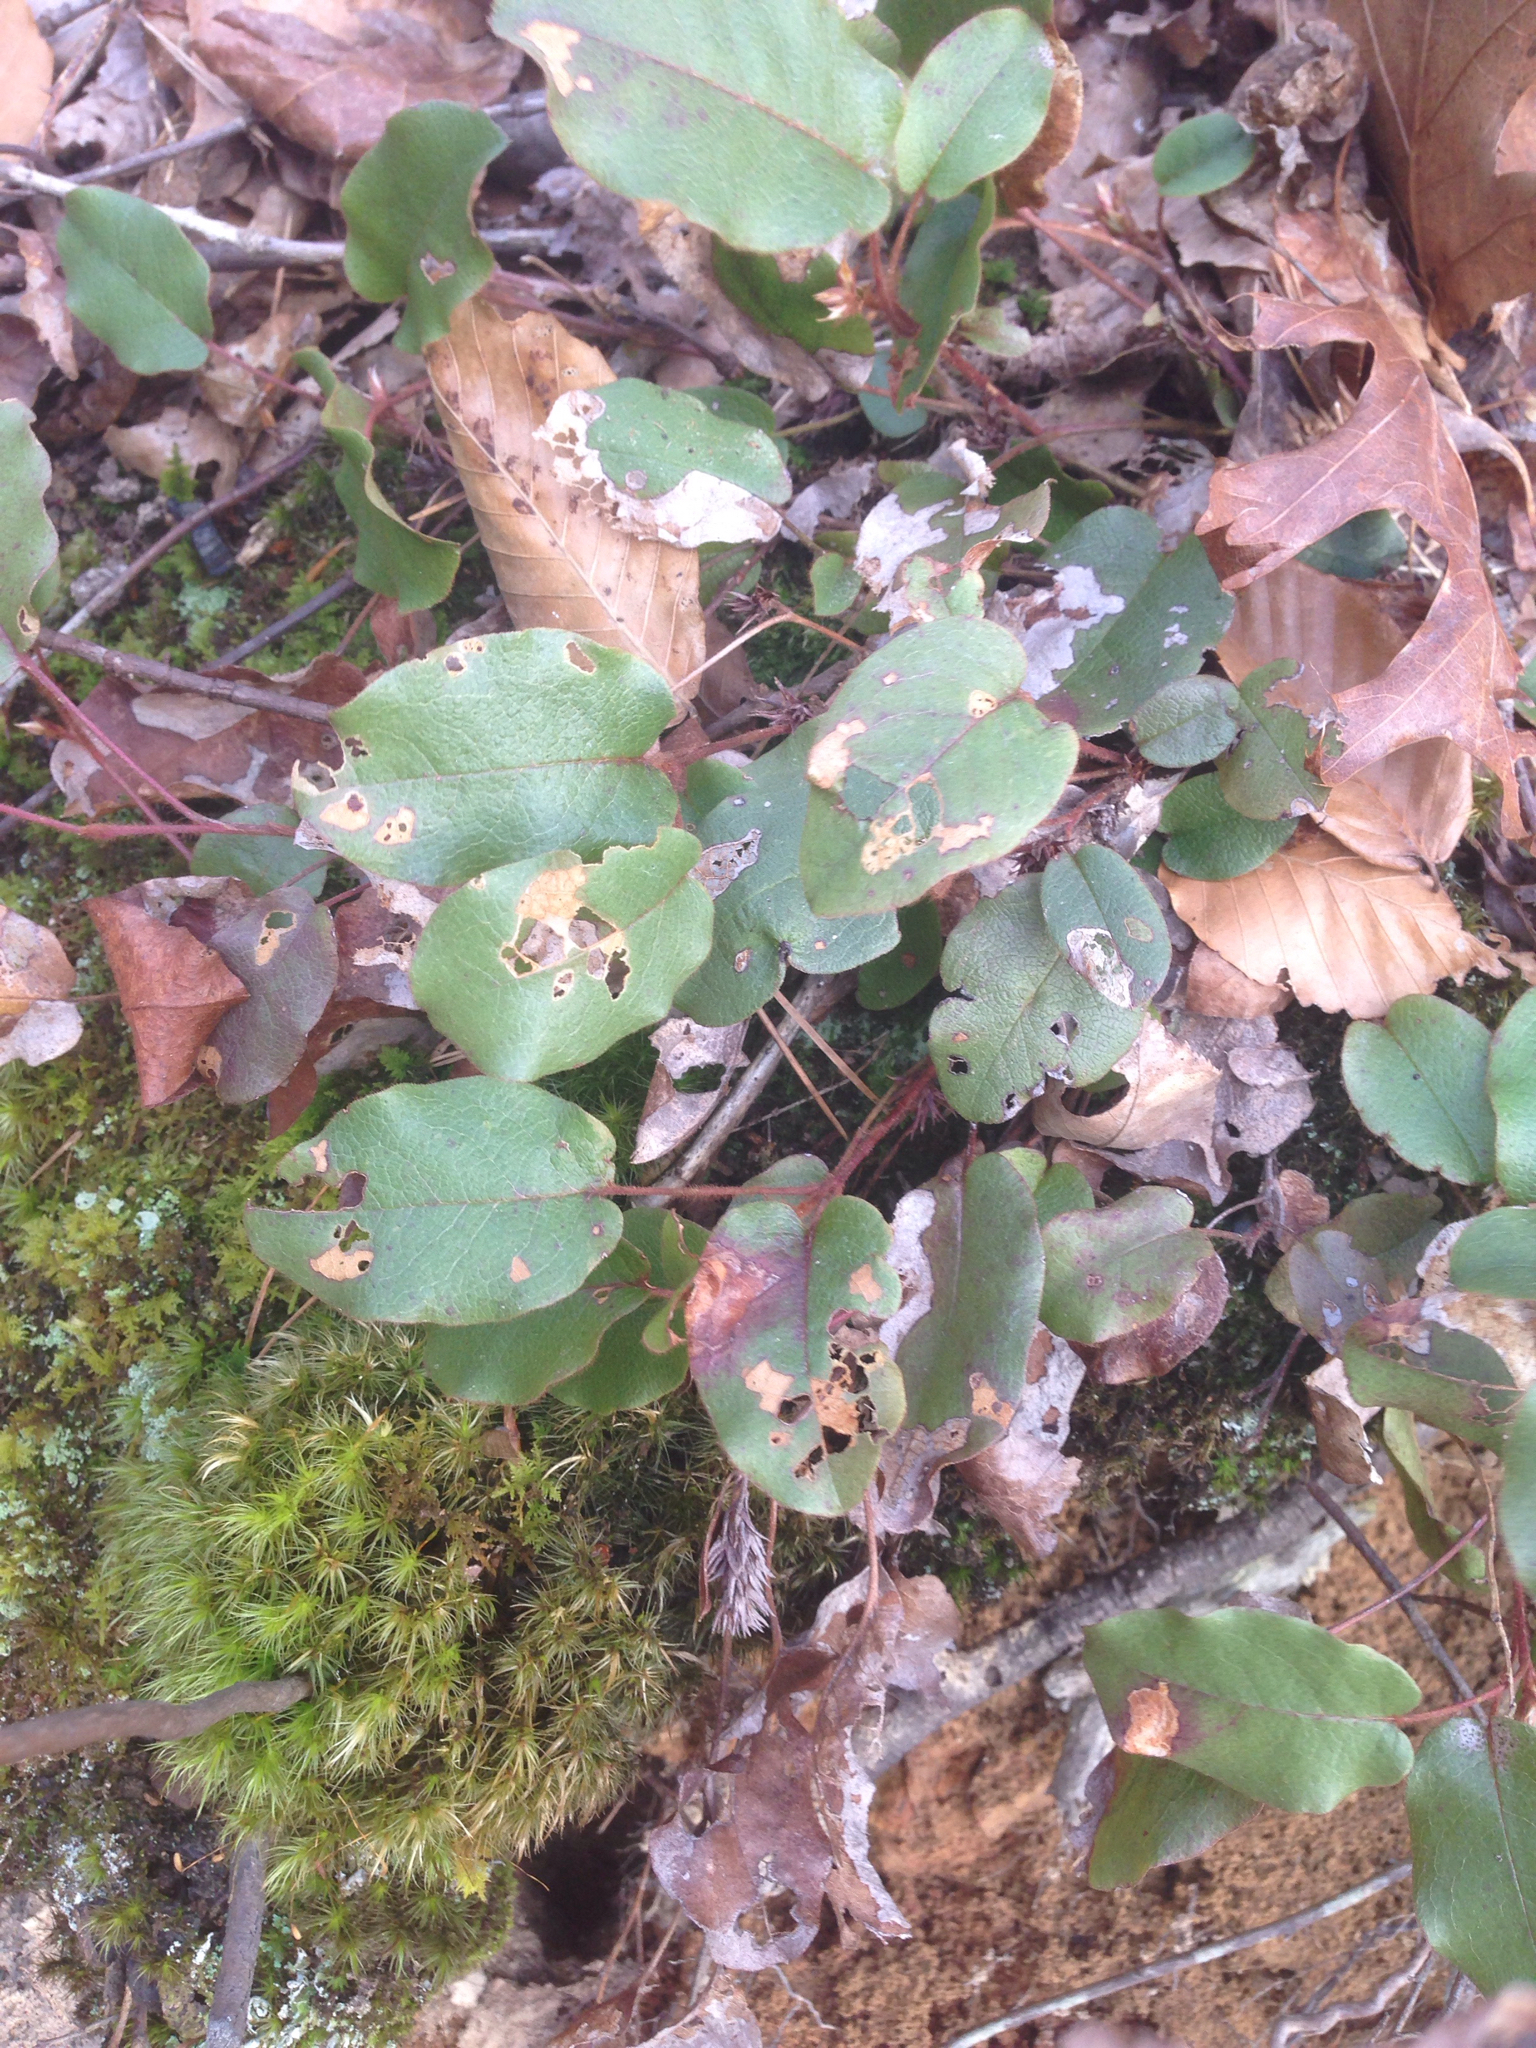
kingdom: Plantae
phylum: Tracheophyta
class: Magnoliopsida
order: Ericales
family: Ericaceae
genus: Epigaea
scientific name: Epigaea repens
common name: Gravelroot
